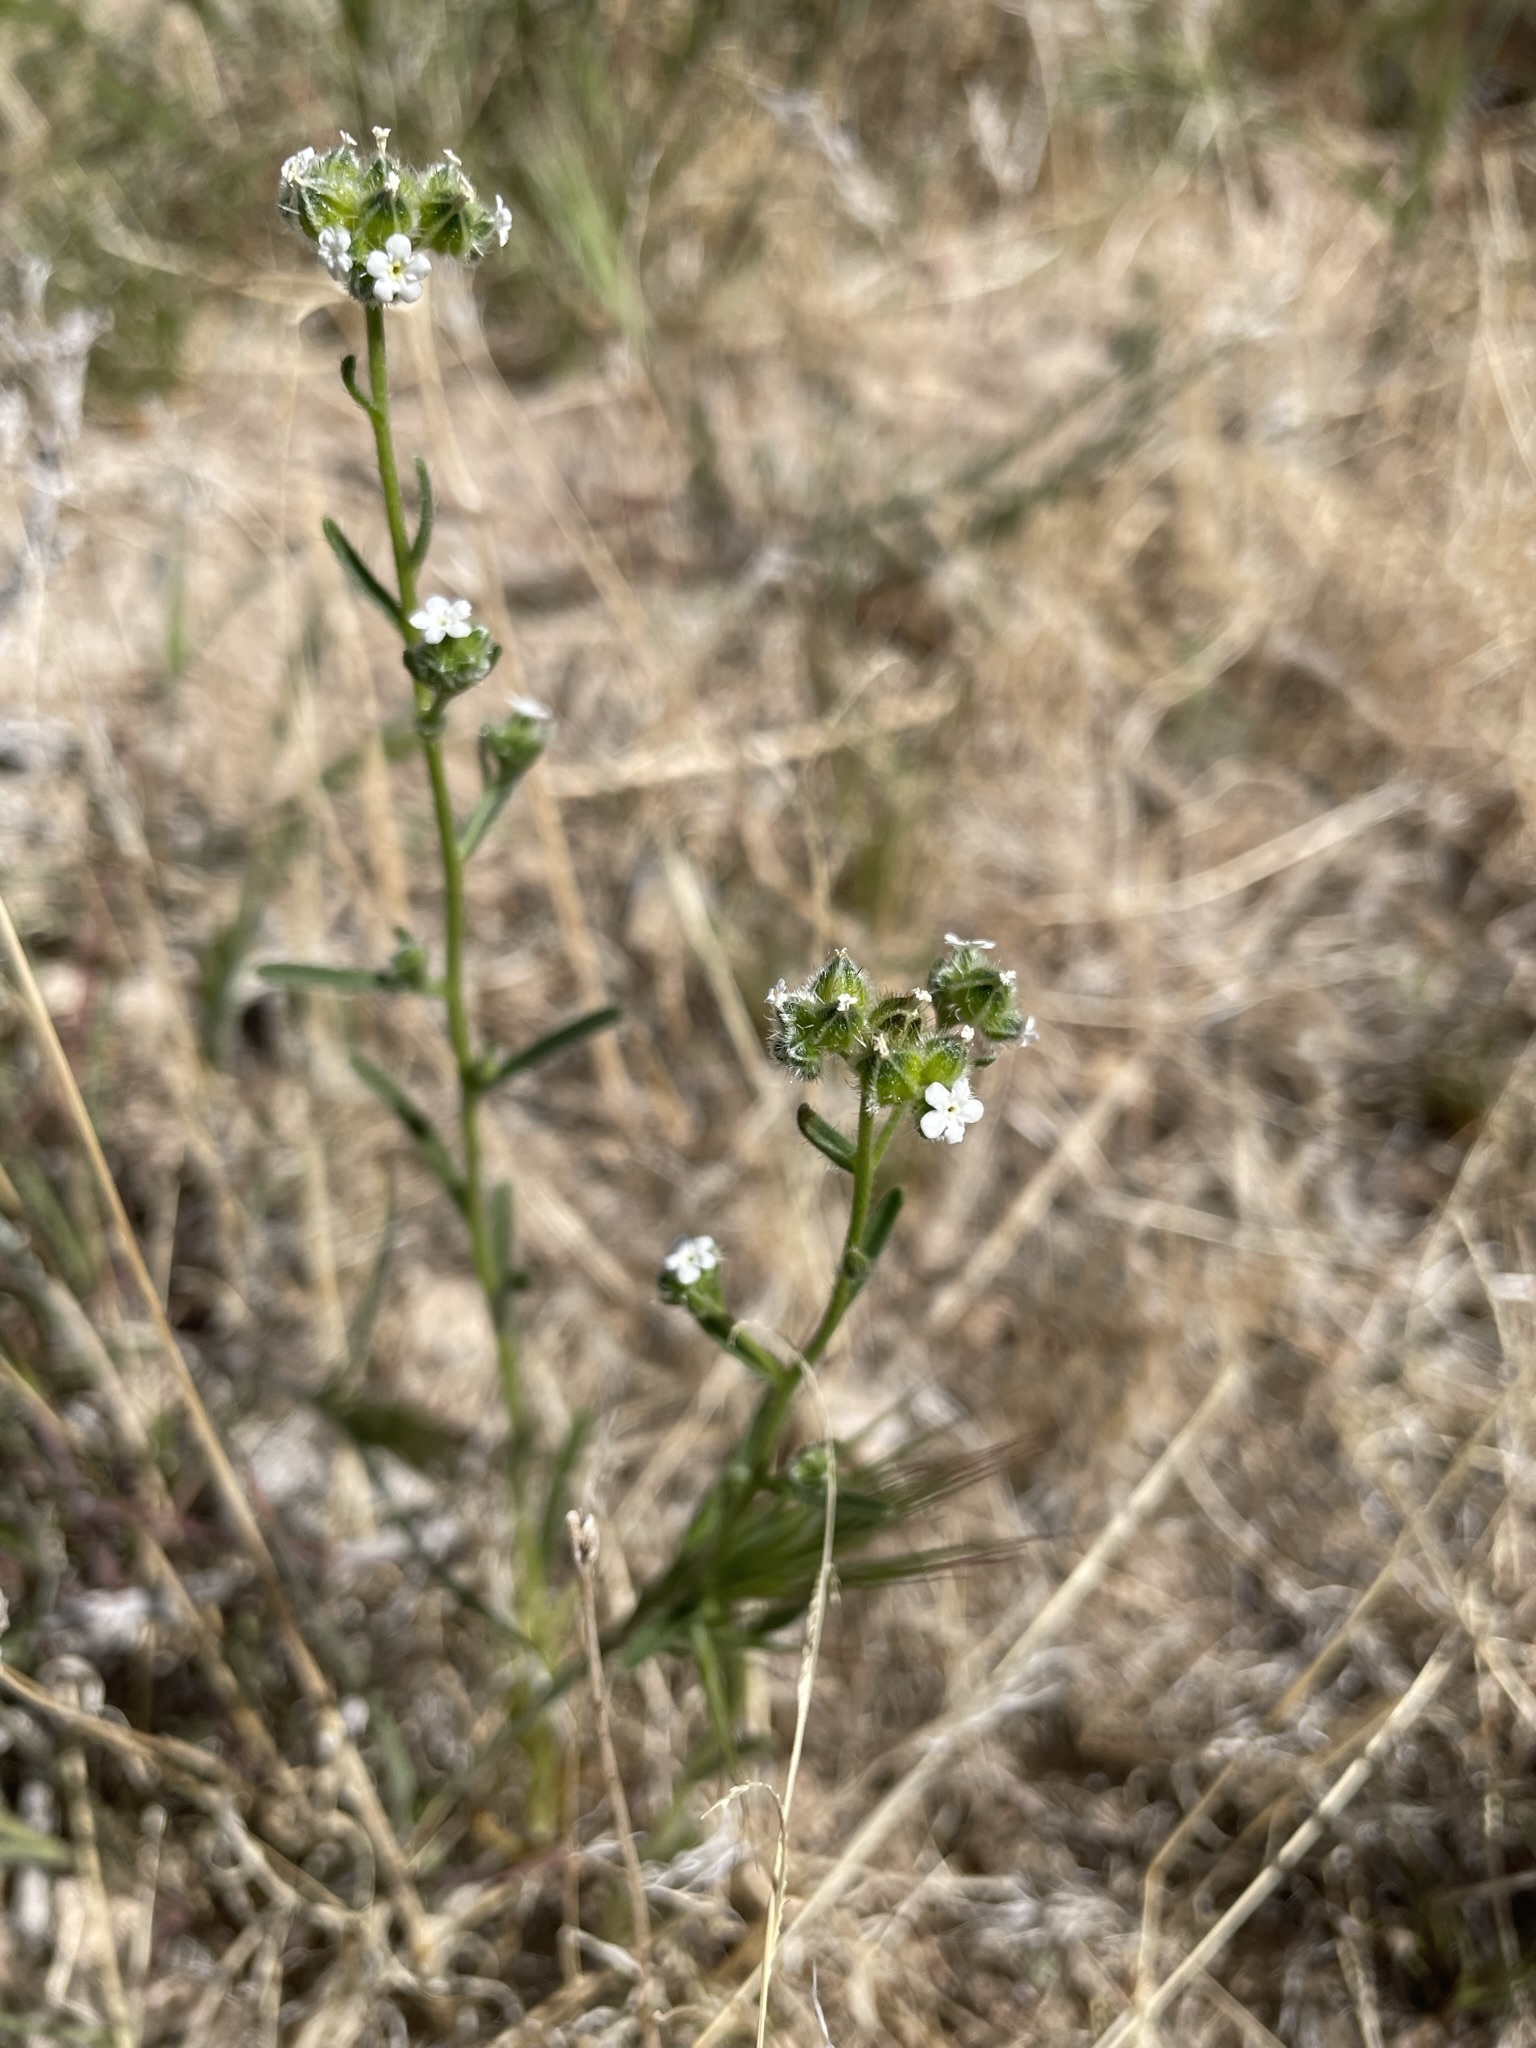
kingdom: Plantae
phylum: Tracheophyta
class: Magnoliopsida
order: Boraginales
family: Boraginaceae
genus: Cryptantha
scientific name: Cryptantha pterocarya
